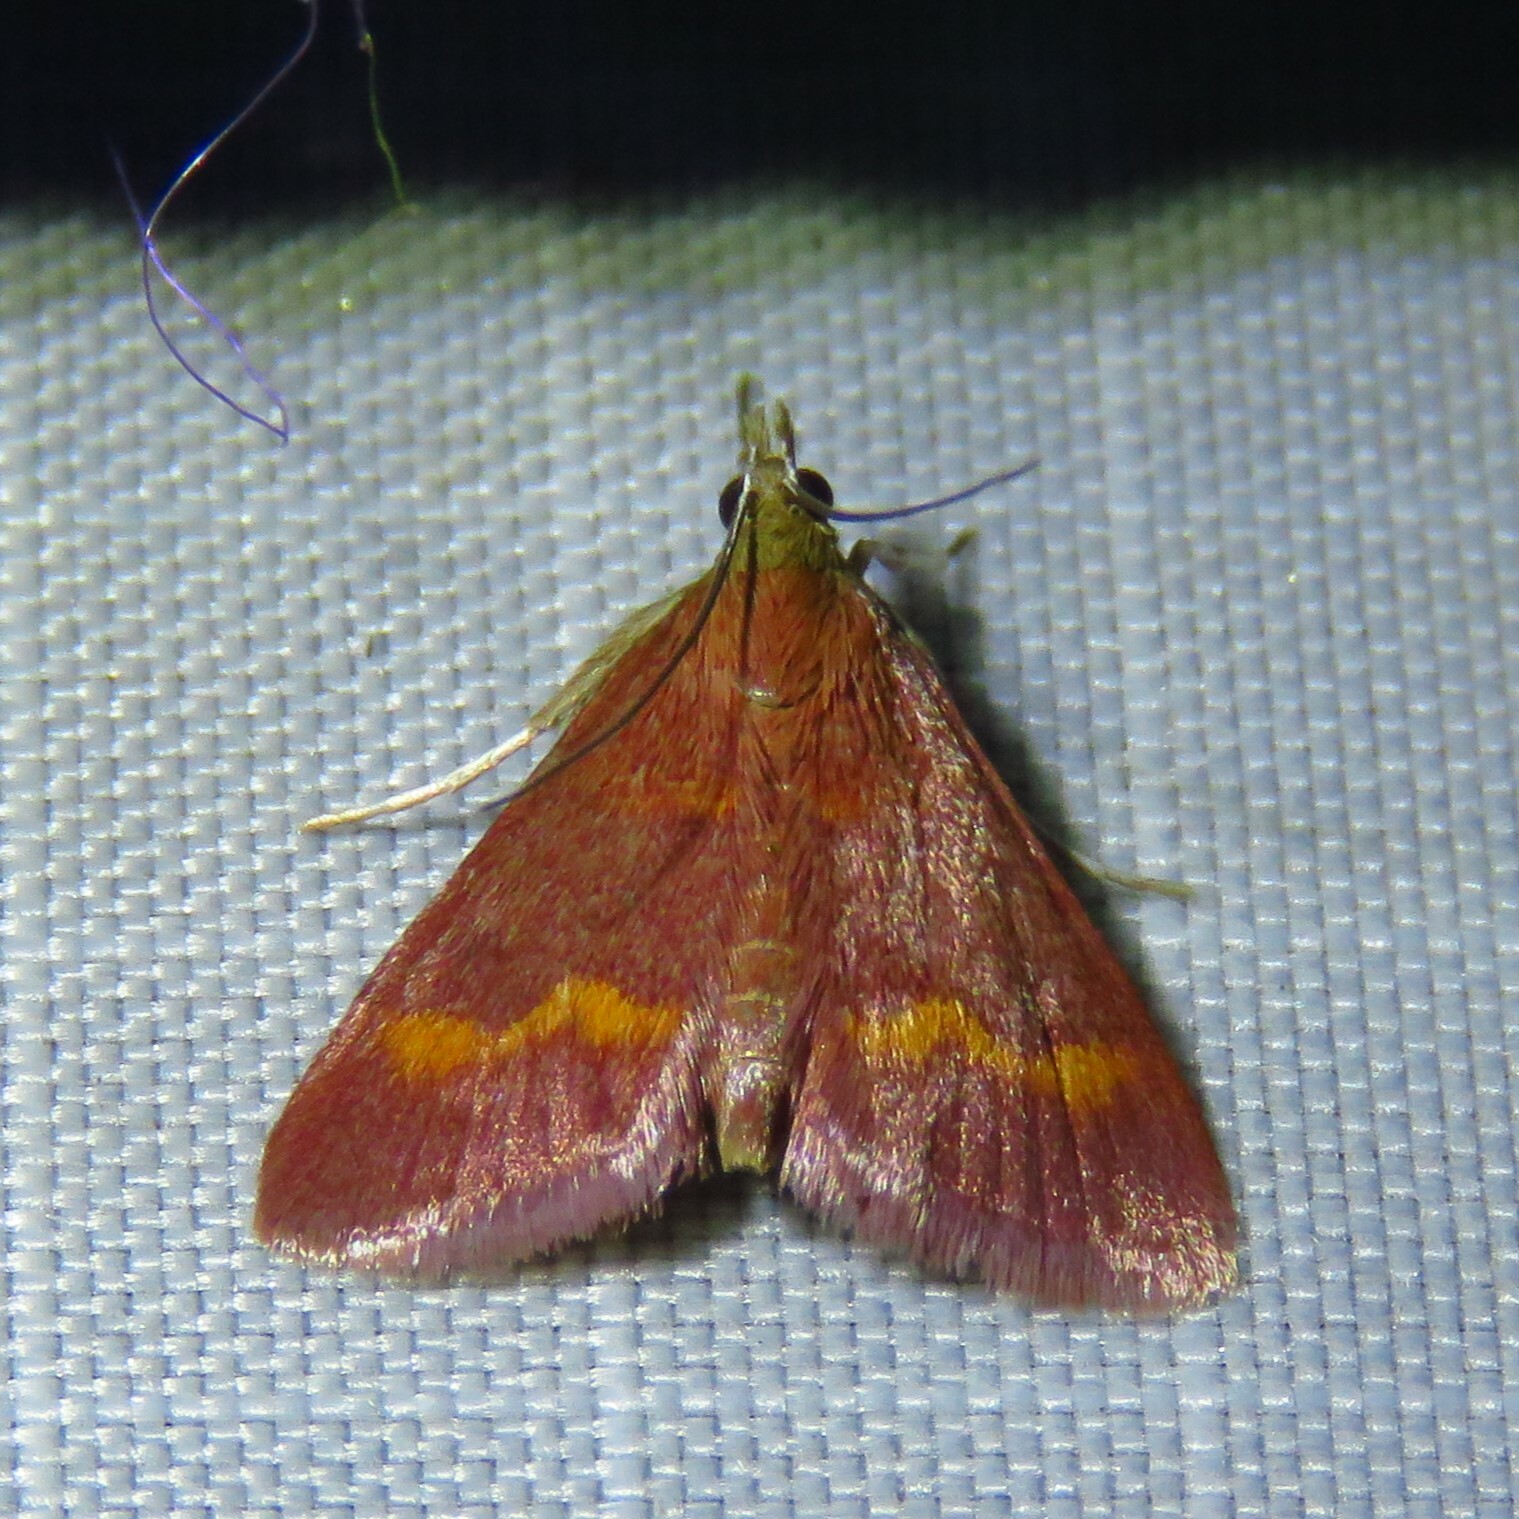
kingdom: Animalia
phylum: Arthropoda
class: Insecta
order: Lepidoptera
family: Crambidae
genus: Pyrausta
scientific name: Pyrausta pseuderosnealis
